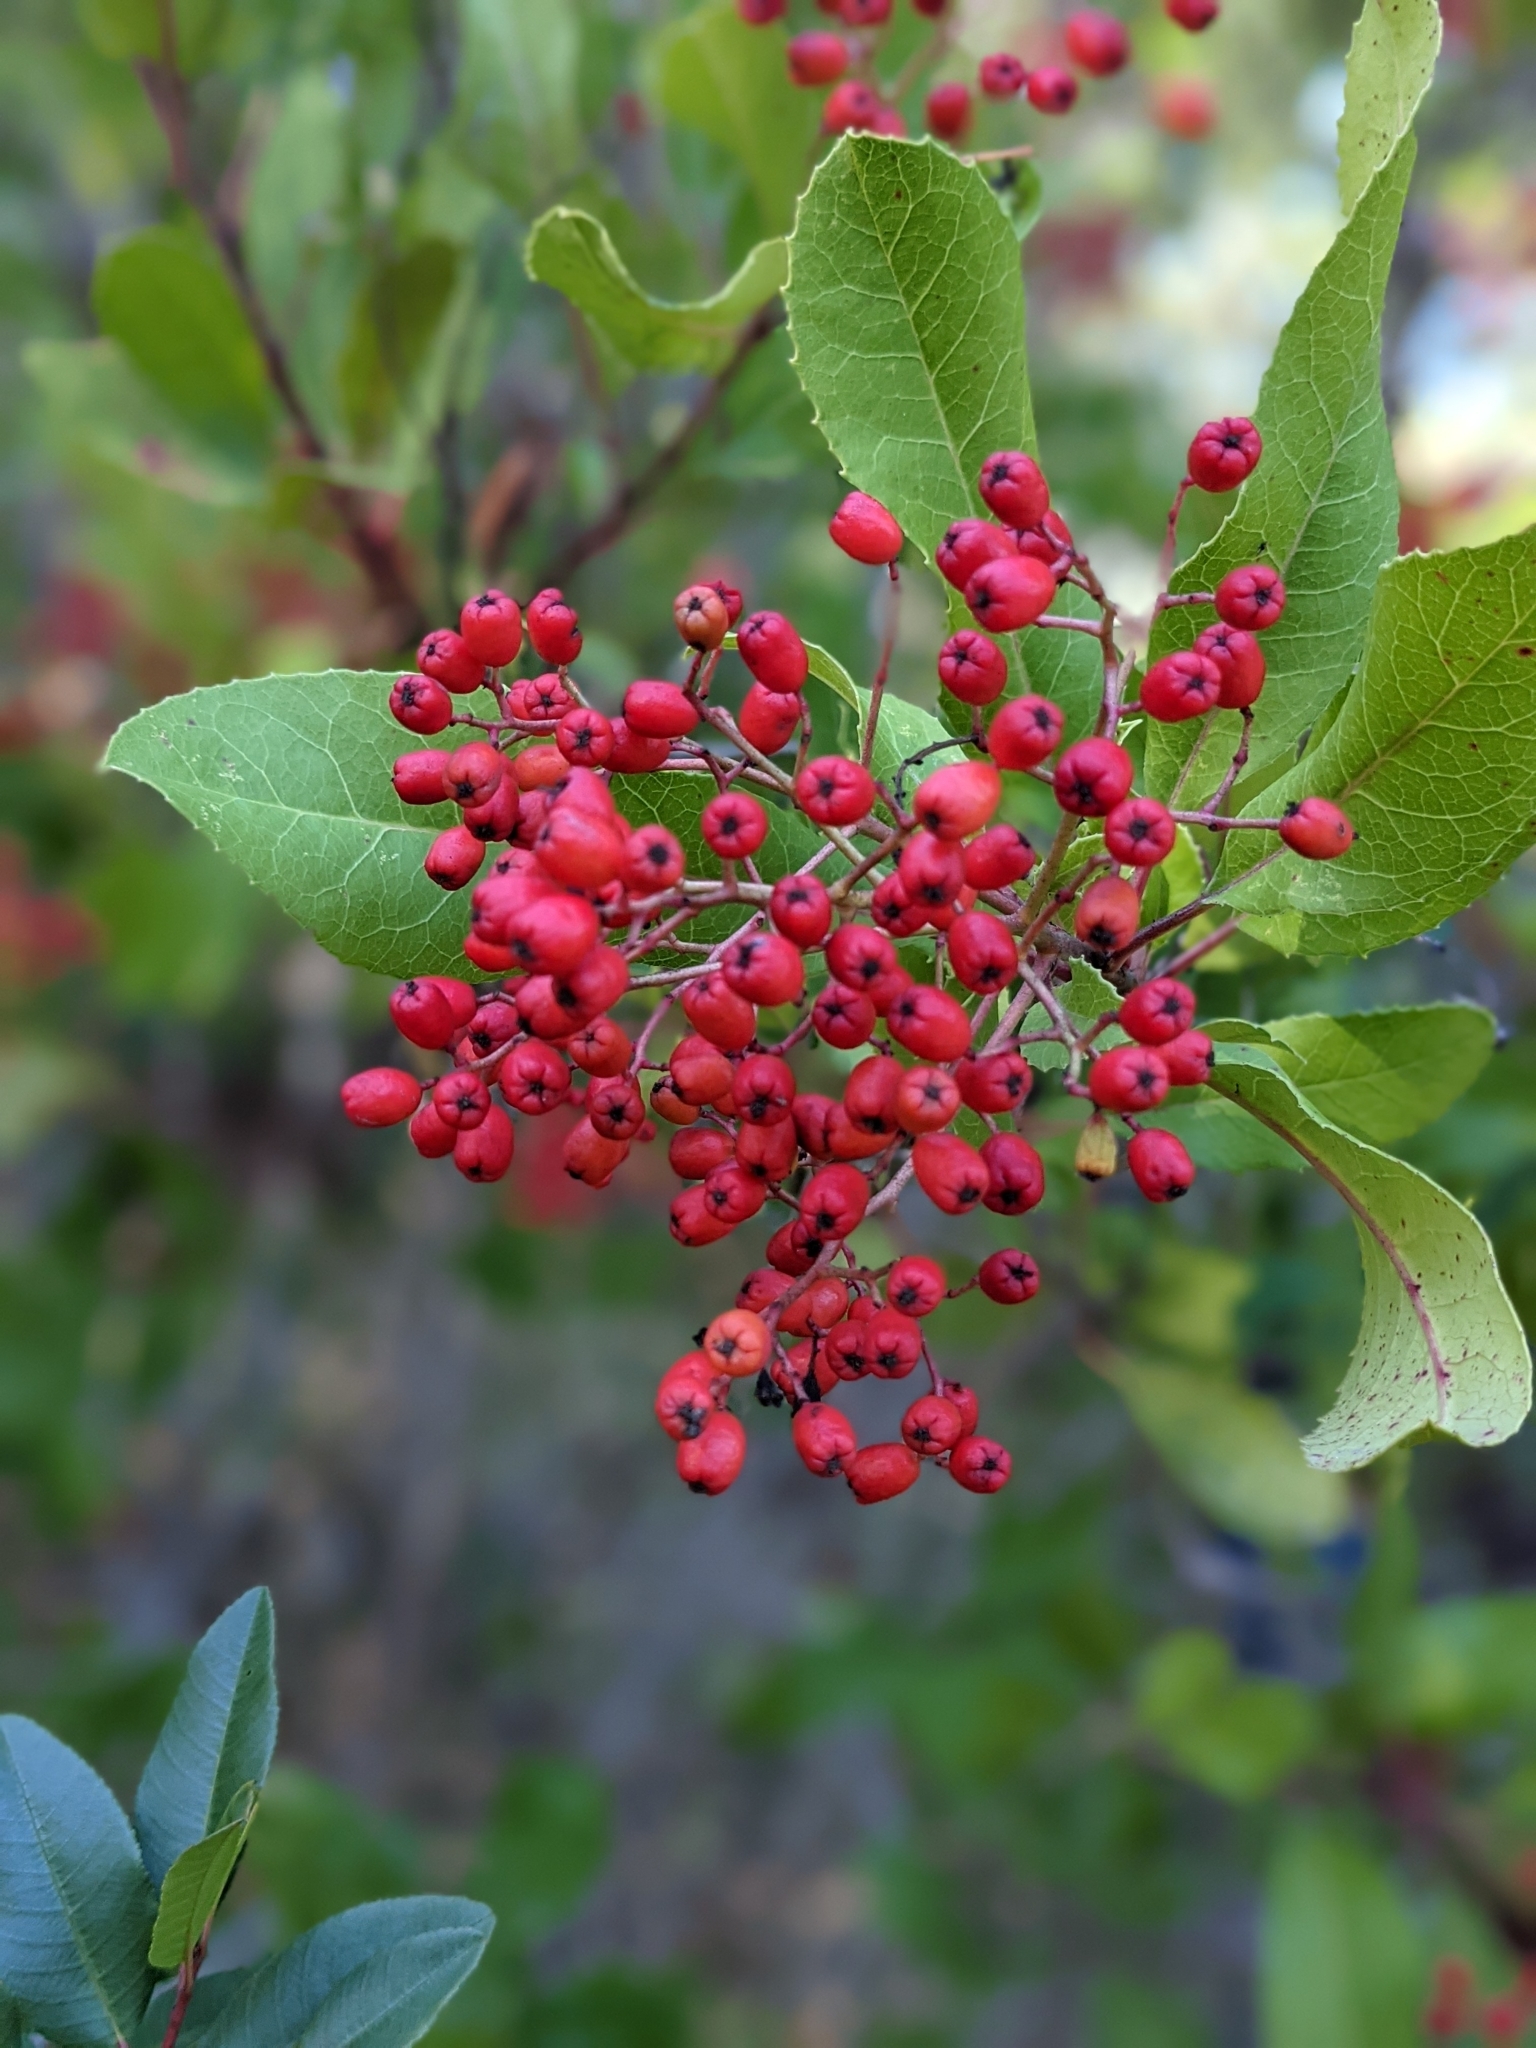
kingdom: Plantae
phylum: Tracheophyta
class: Magnoliopsida
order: Rosales
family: Rosaceae
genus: Heteromeles
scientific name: Heteromeles arbutifolia
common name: California-holly
